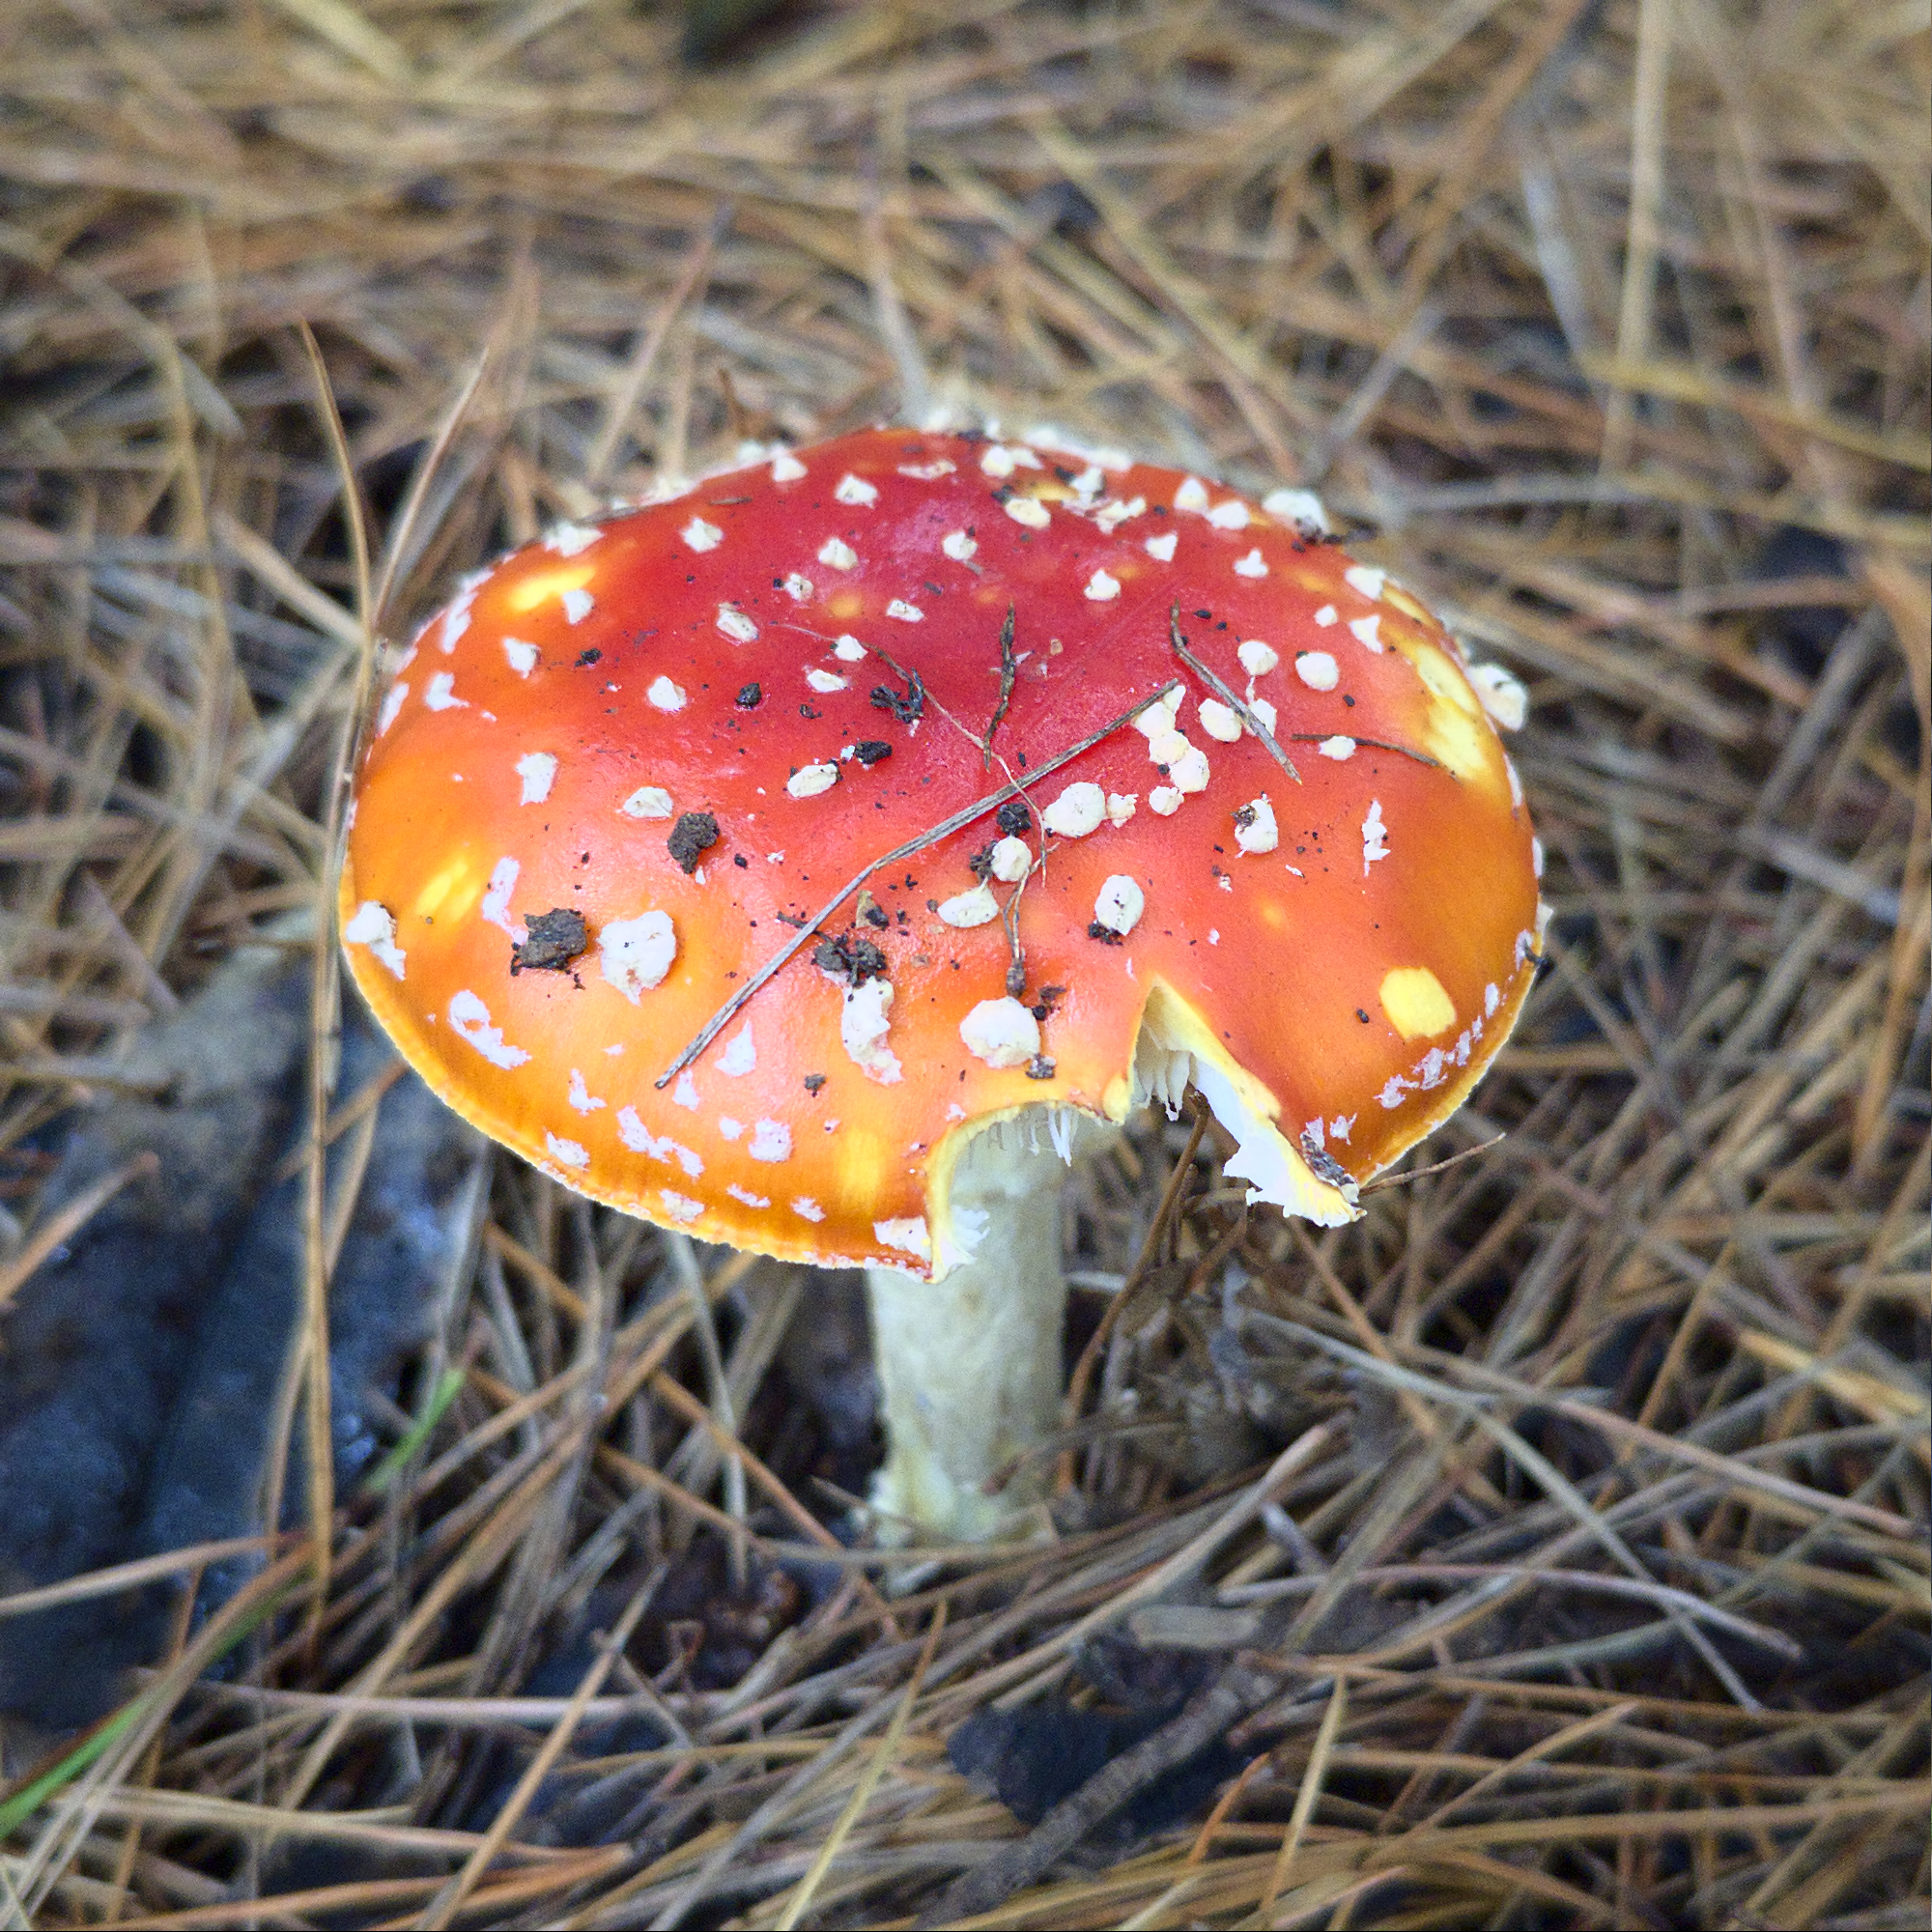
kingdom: Fungi
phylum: Basidiomycota
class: Agaricomycetes
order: Agaricales
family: Amanitaceae
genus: Amanita
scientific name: Amanita muscaria
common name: Fly agaric
